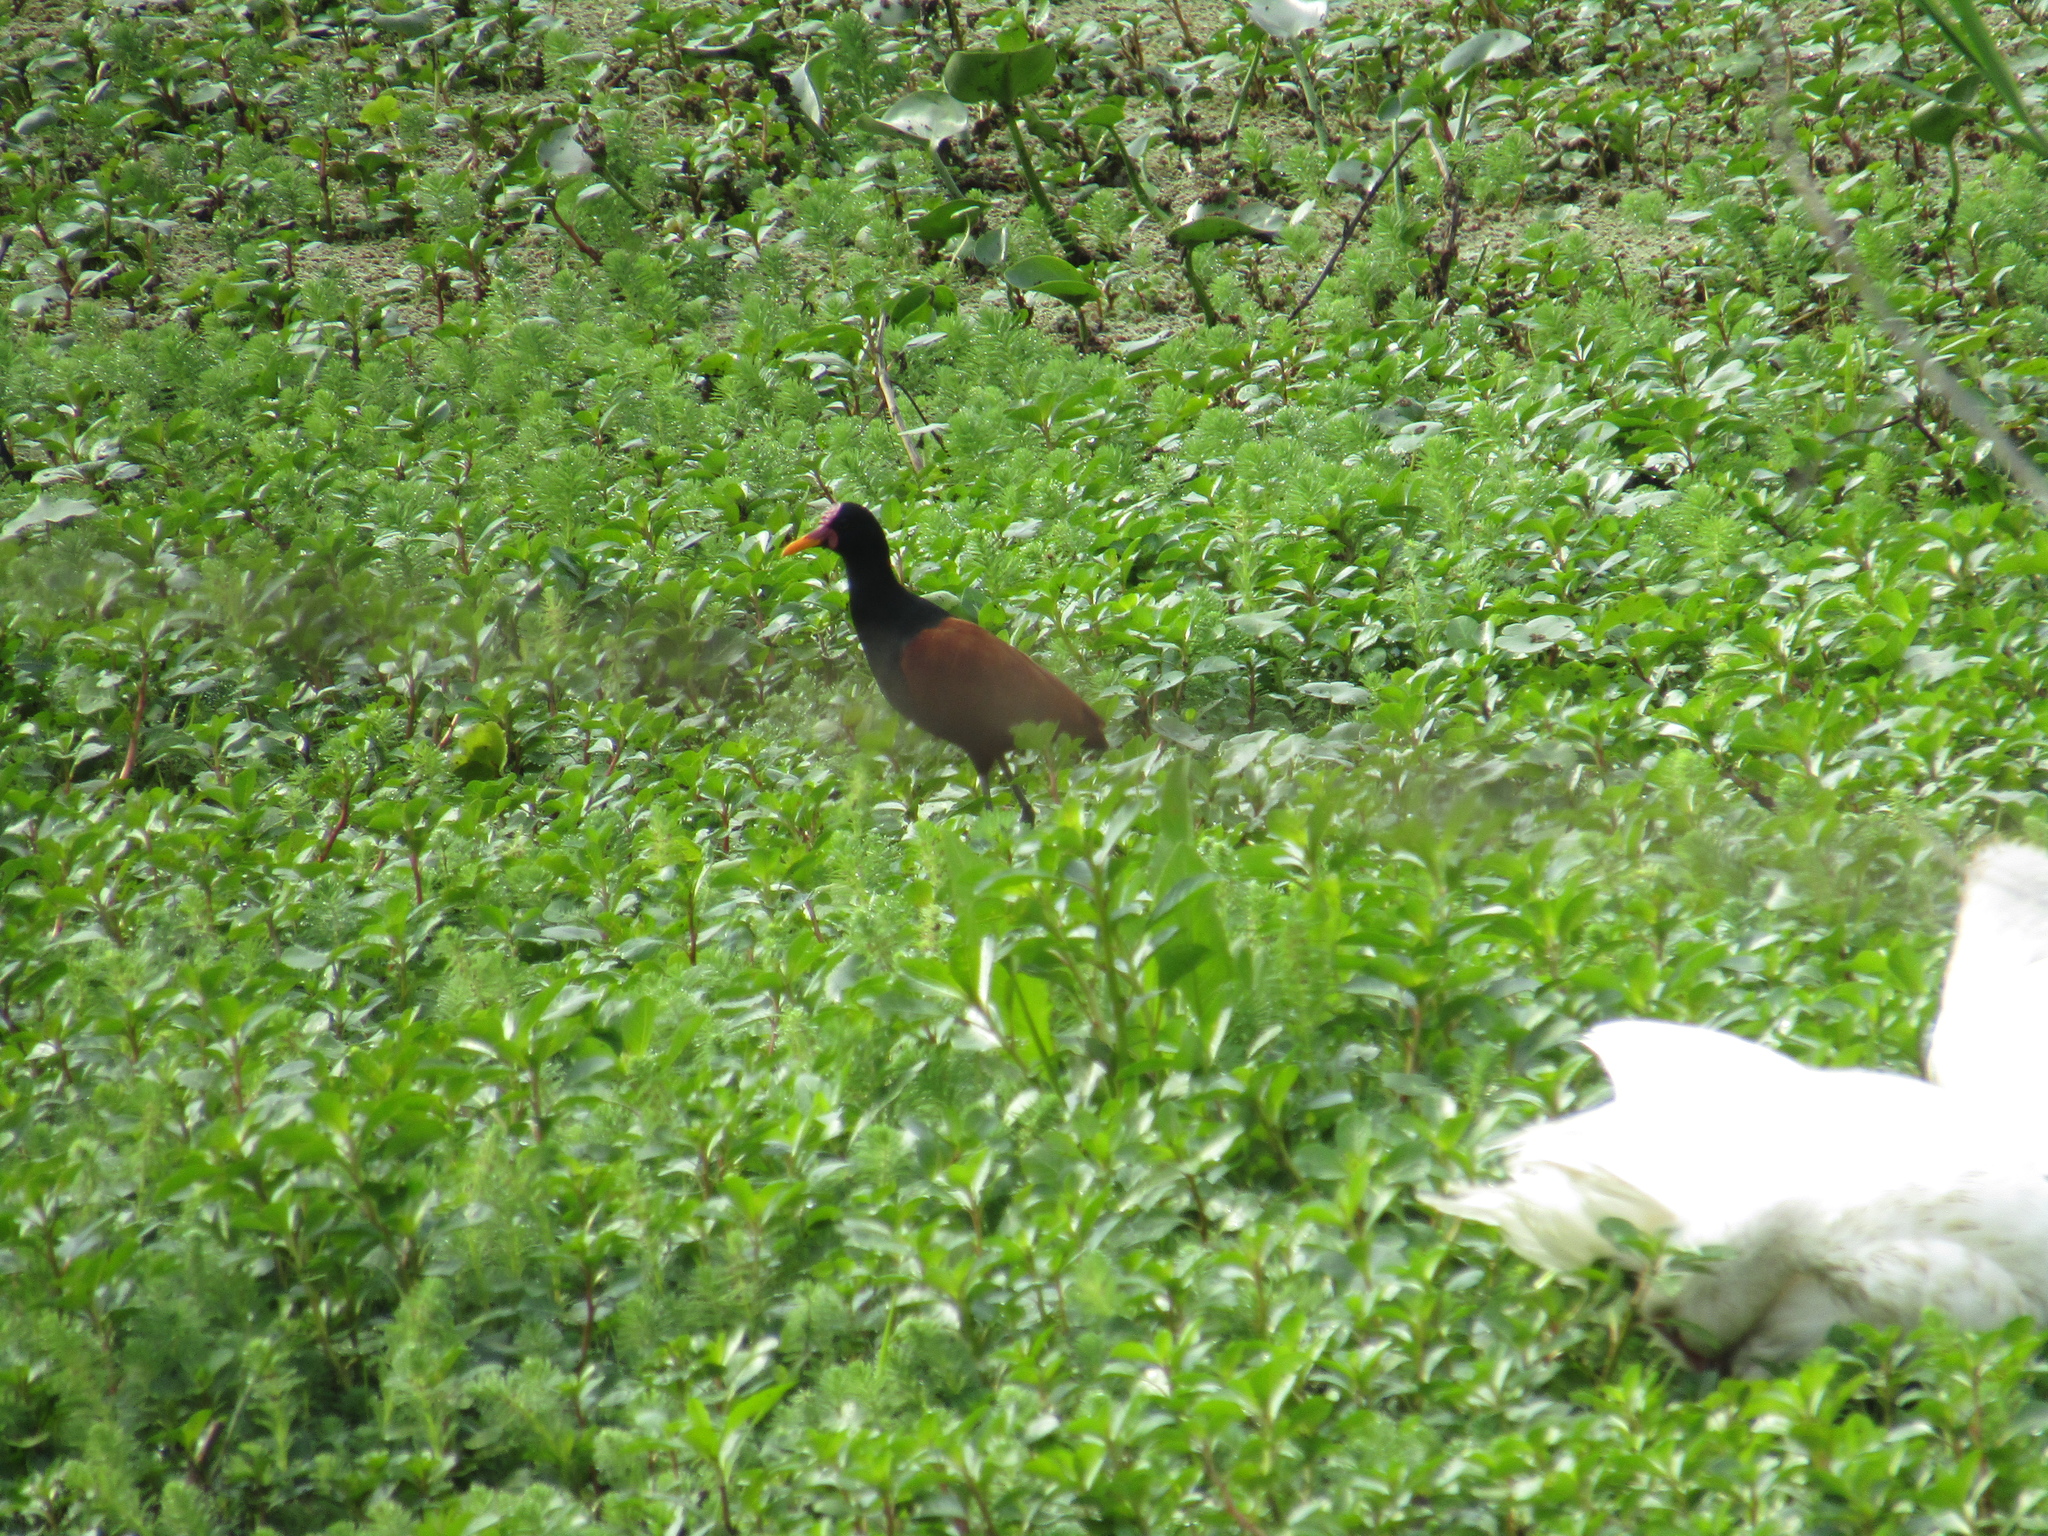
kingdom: Animalia
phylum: Chordata
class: Aves
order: Charadriiformes
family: Jacanidae
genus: Jacana
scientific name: Jacana jacana
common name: Wattled jacana
